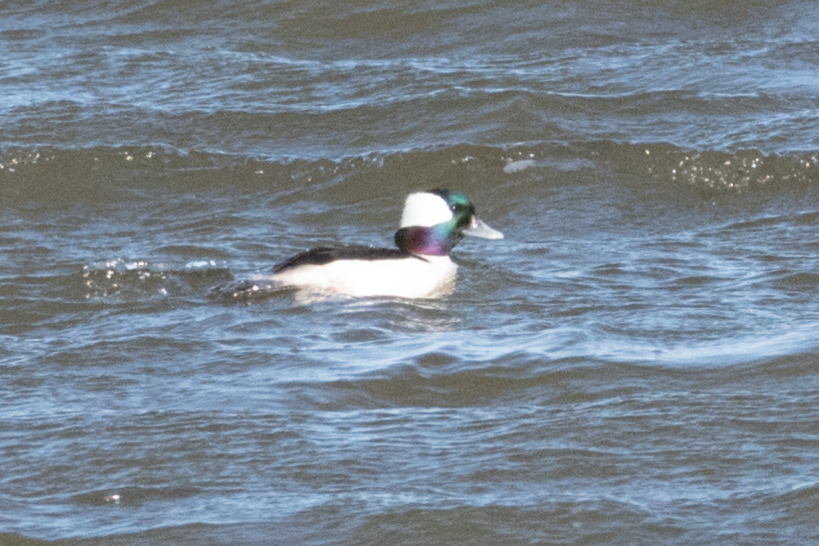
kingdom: Animalia
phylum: Chordata
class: Aves
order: Anseriformes
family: Anatidae
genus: Bucephala
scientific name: Bucephala albeola
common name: Bufflehead
